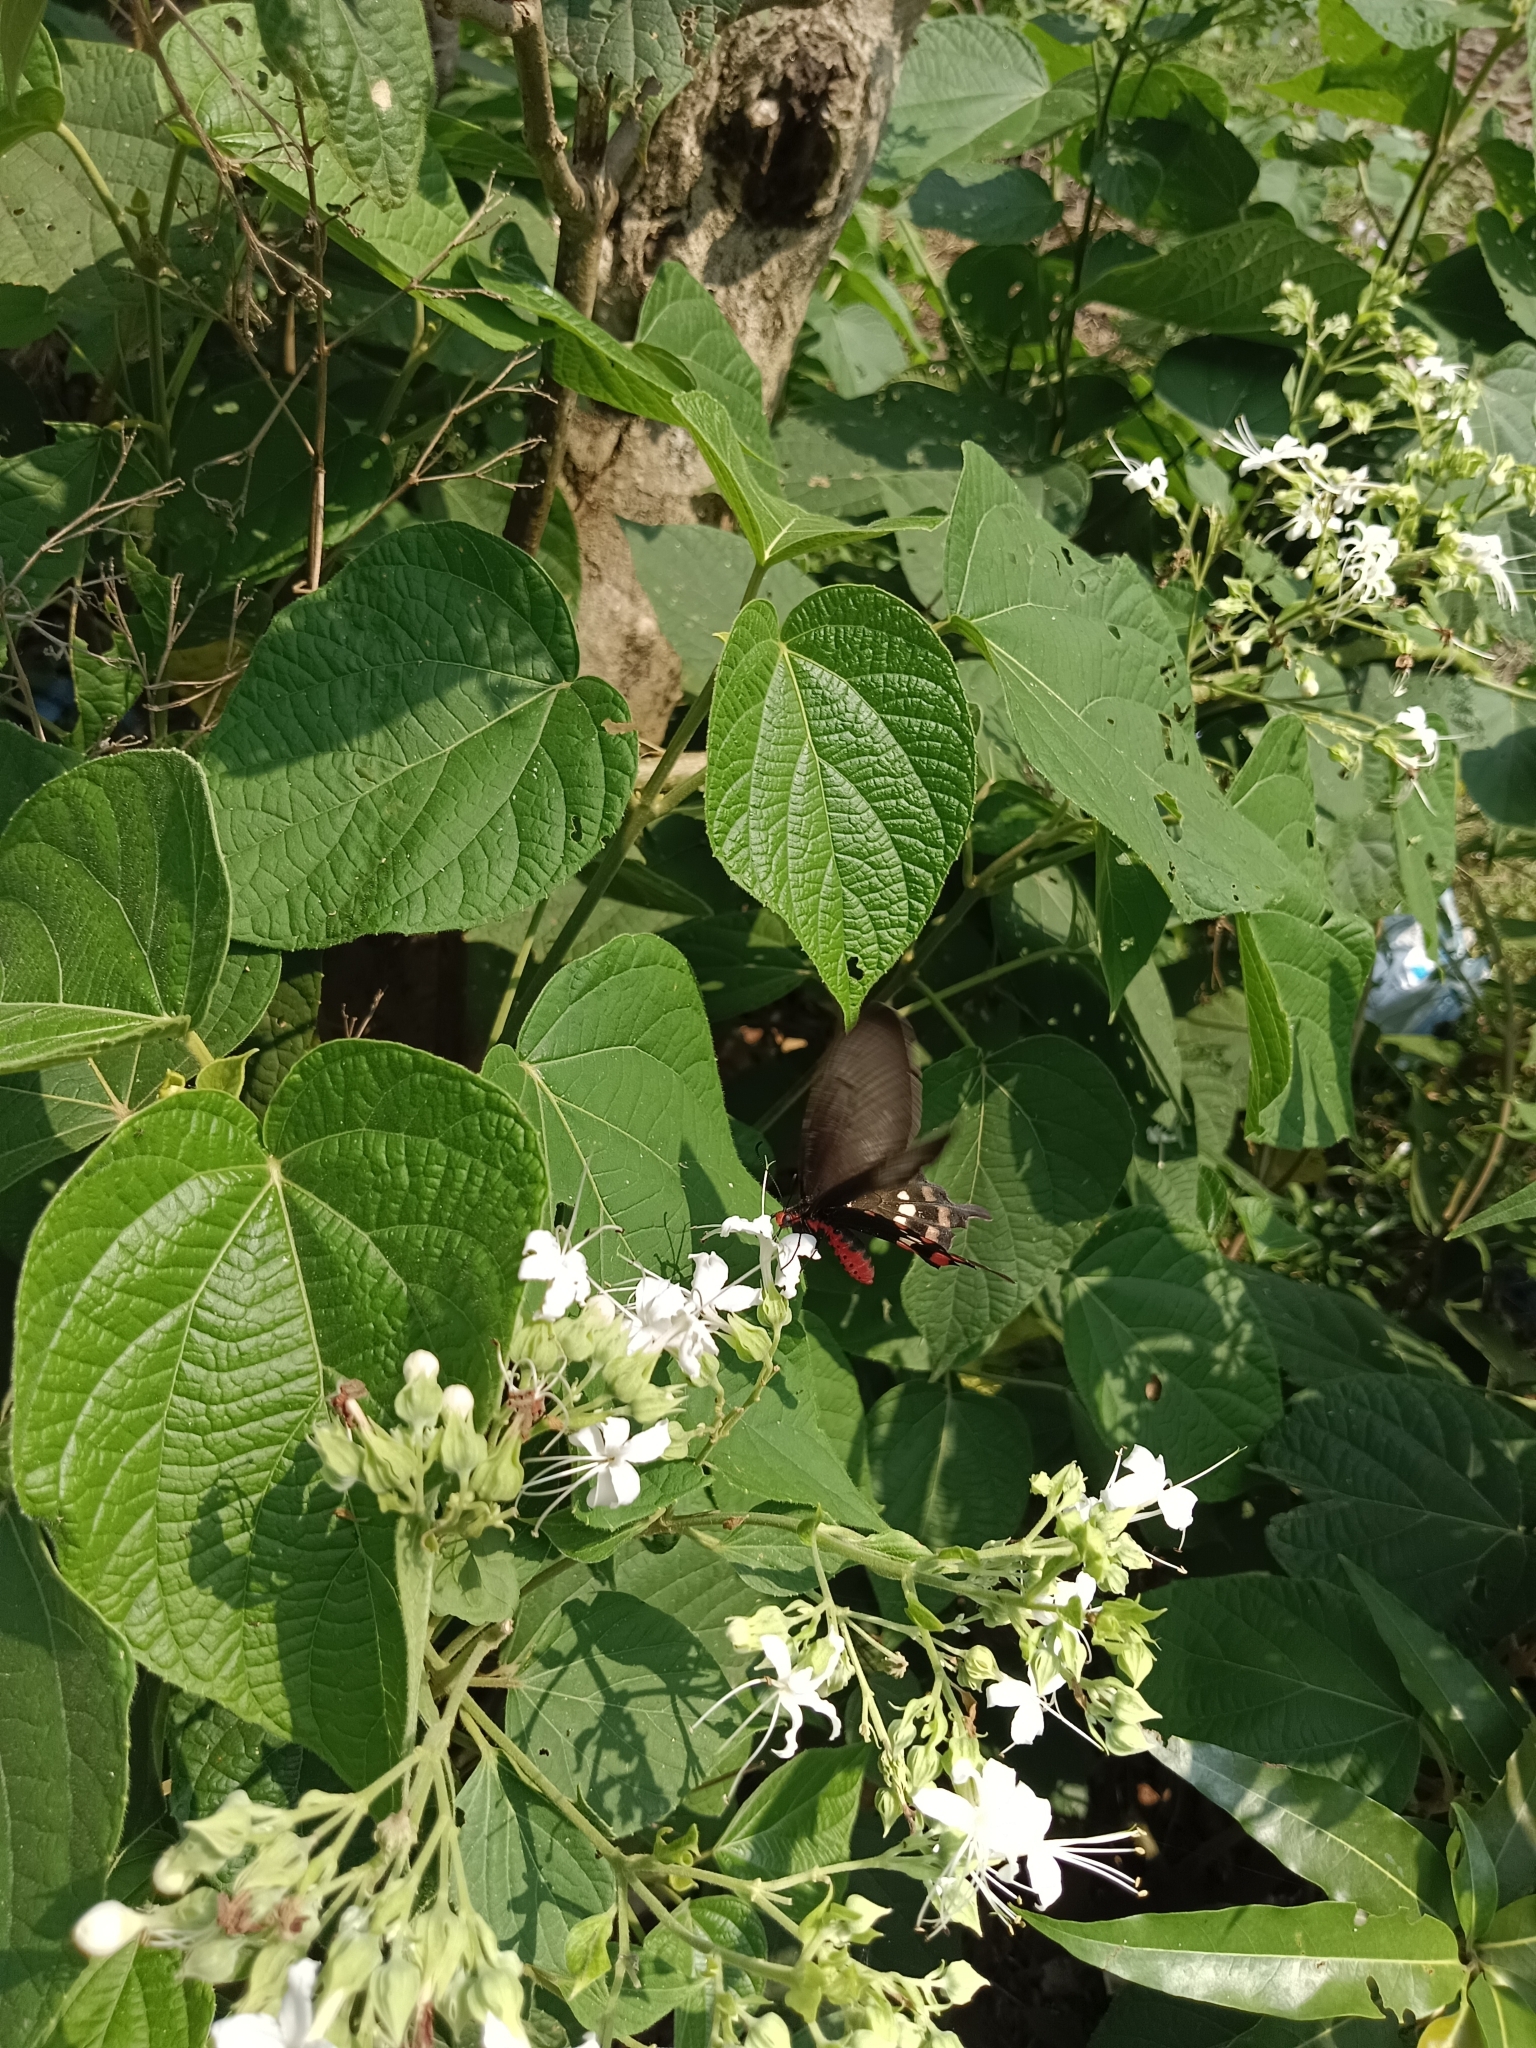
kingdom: Plantae
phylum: Tracheophyta
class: Magnoliopsida
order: Lamiales
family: Lamiaceae
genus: Clerodendrum
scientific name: Clerodendrum infortunatum
